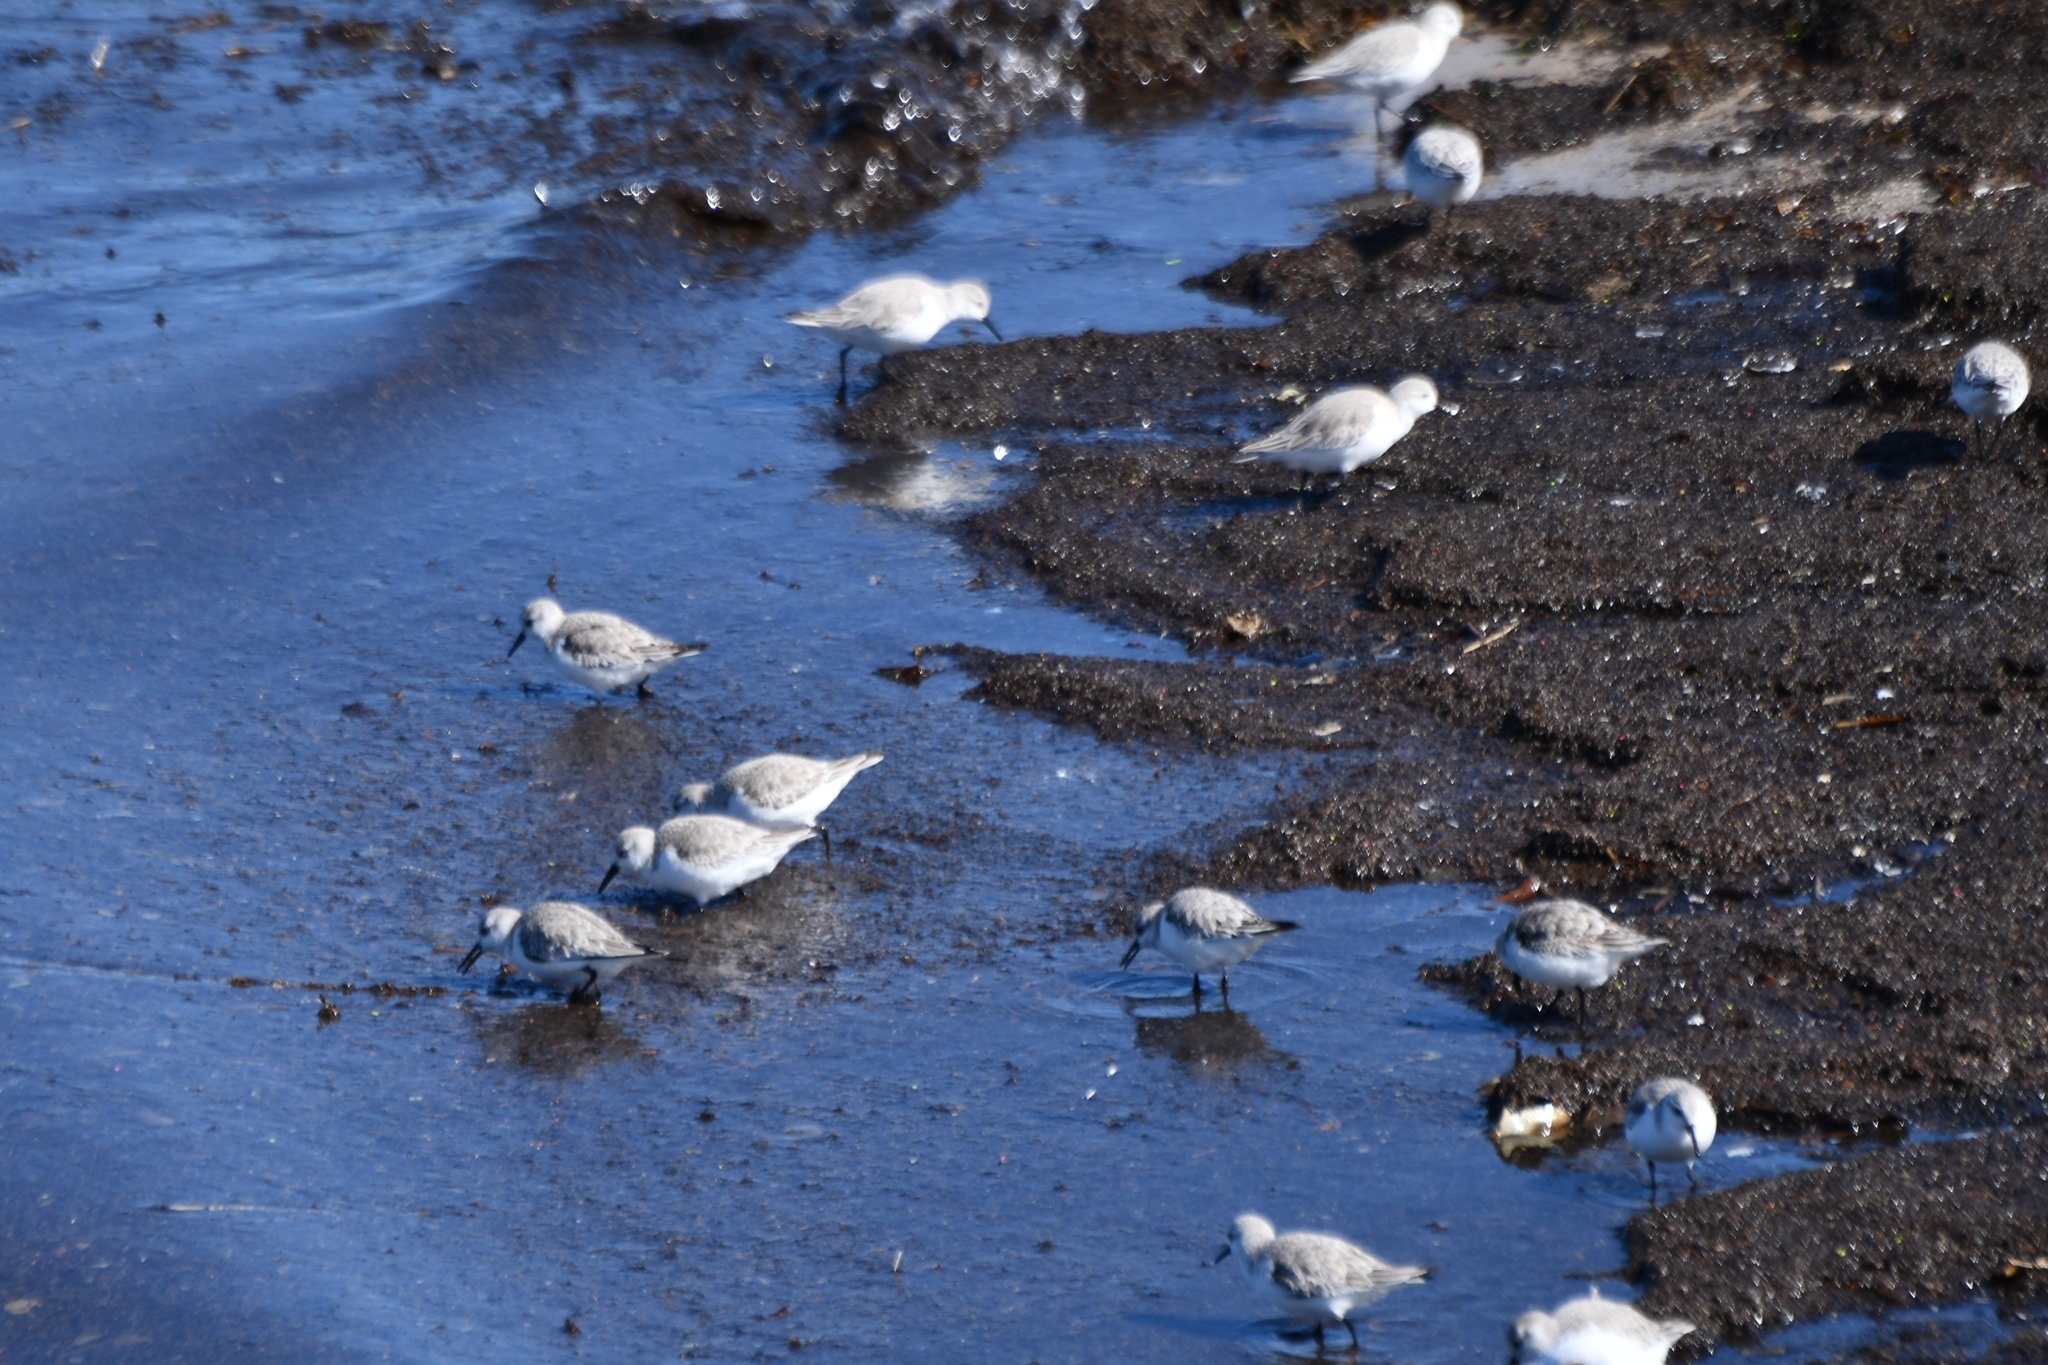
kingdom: Animalia
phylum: Chordata
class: Aves
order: Charadriiformes
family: Scolopacidae
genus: Calidris
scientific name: Calidris alba
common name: Sanderling
